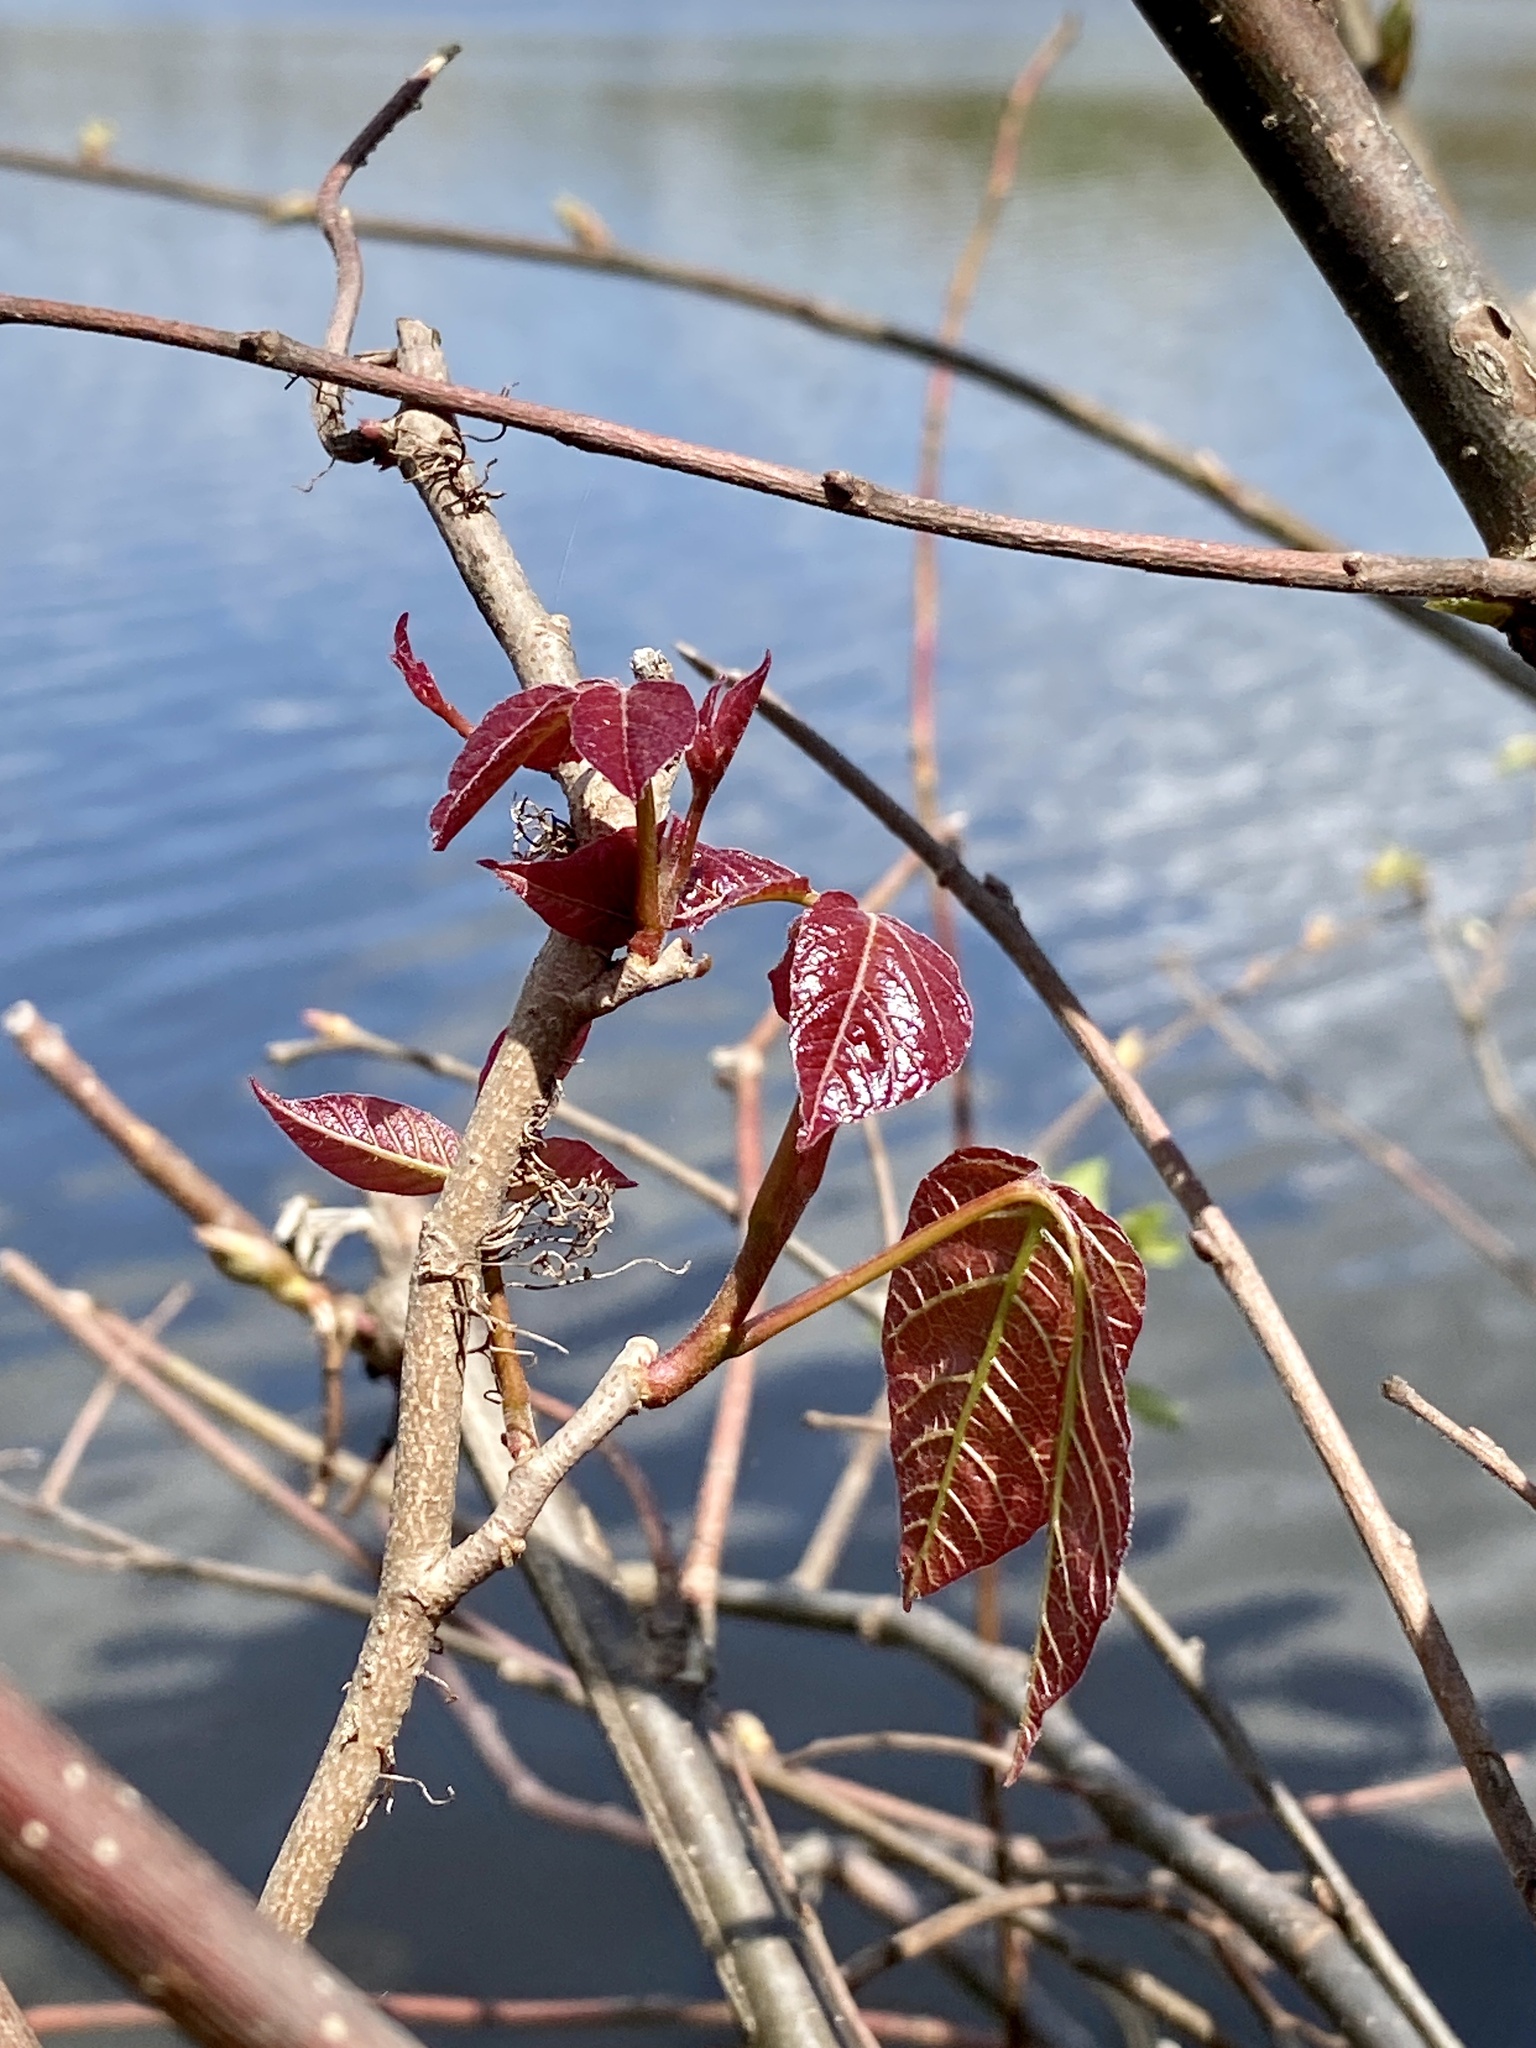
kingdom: Plantae
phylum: Tracheophyta
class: Magnoliopsida
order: Sapindales
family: Anacardiaceae
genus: Toxicodendron
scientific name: Toxicodendron radicans
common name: Poison ivy
